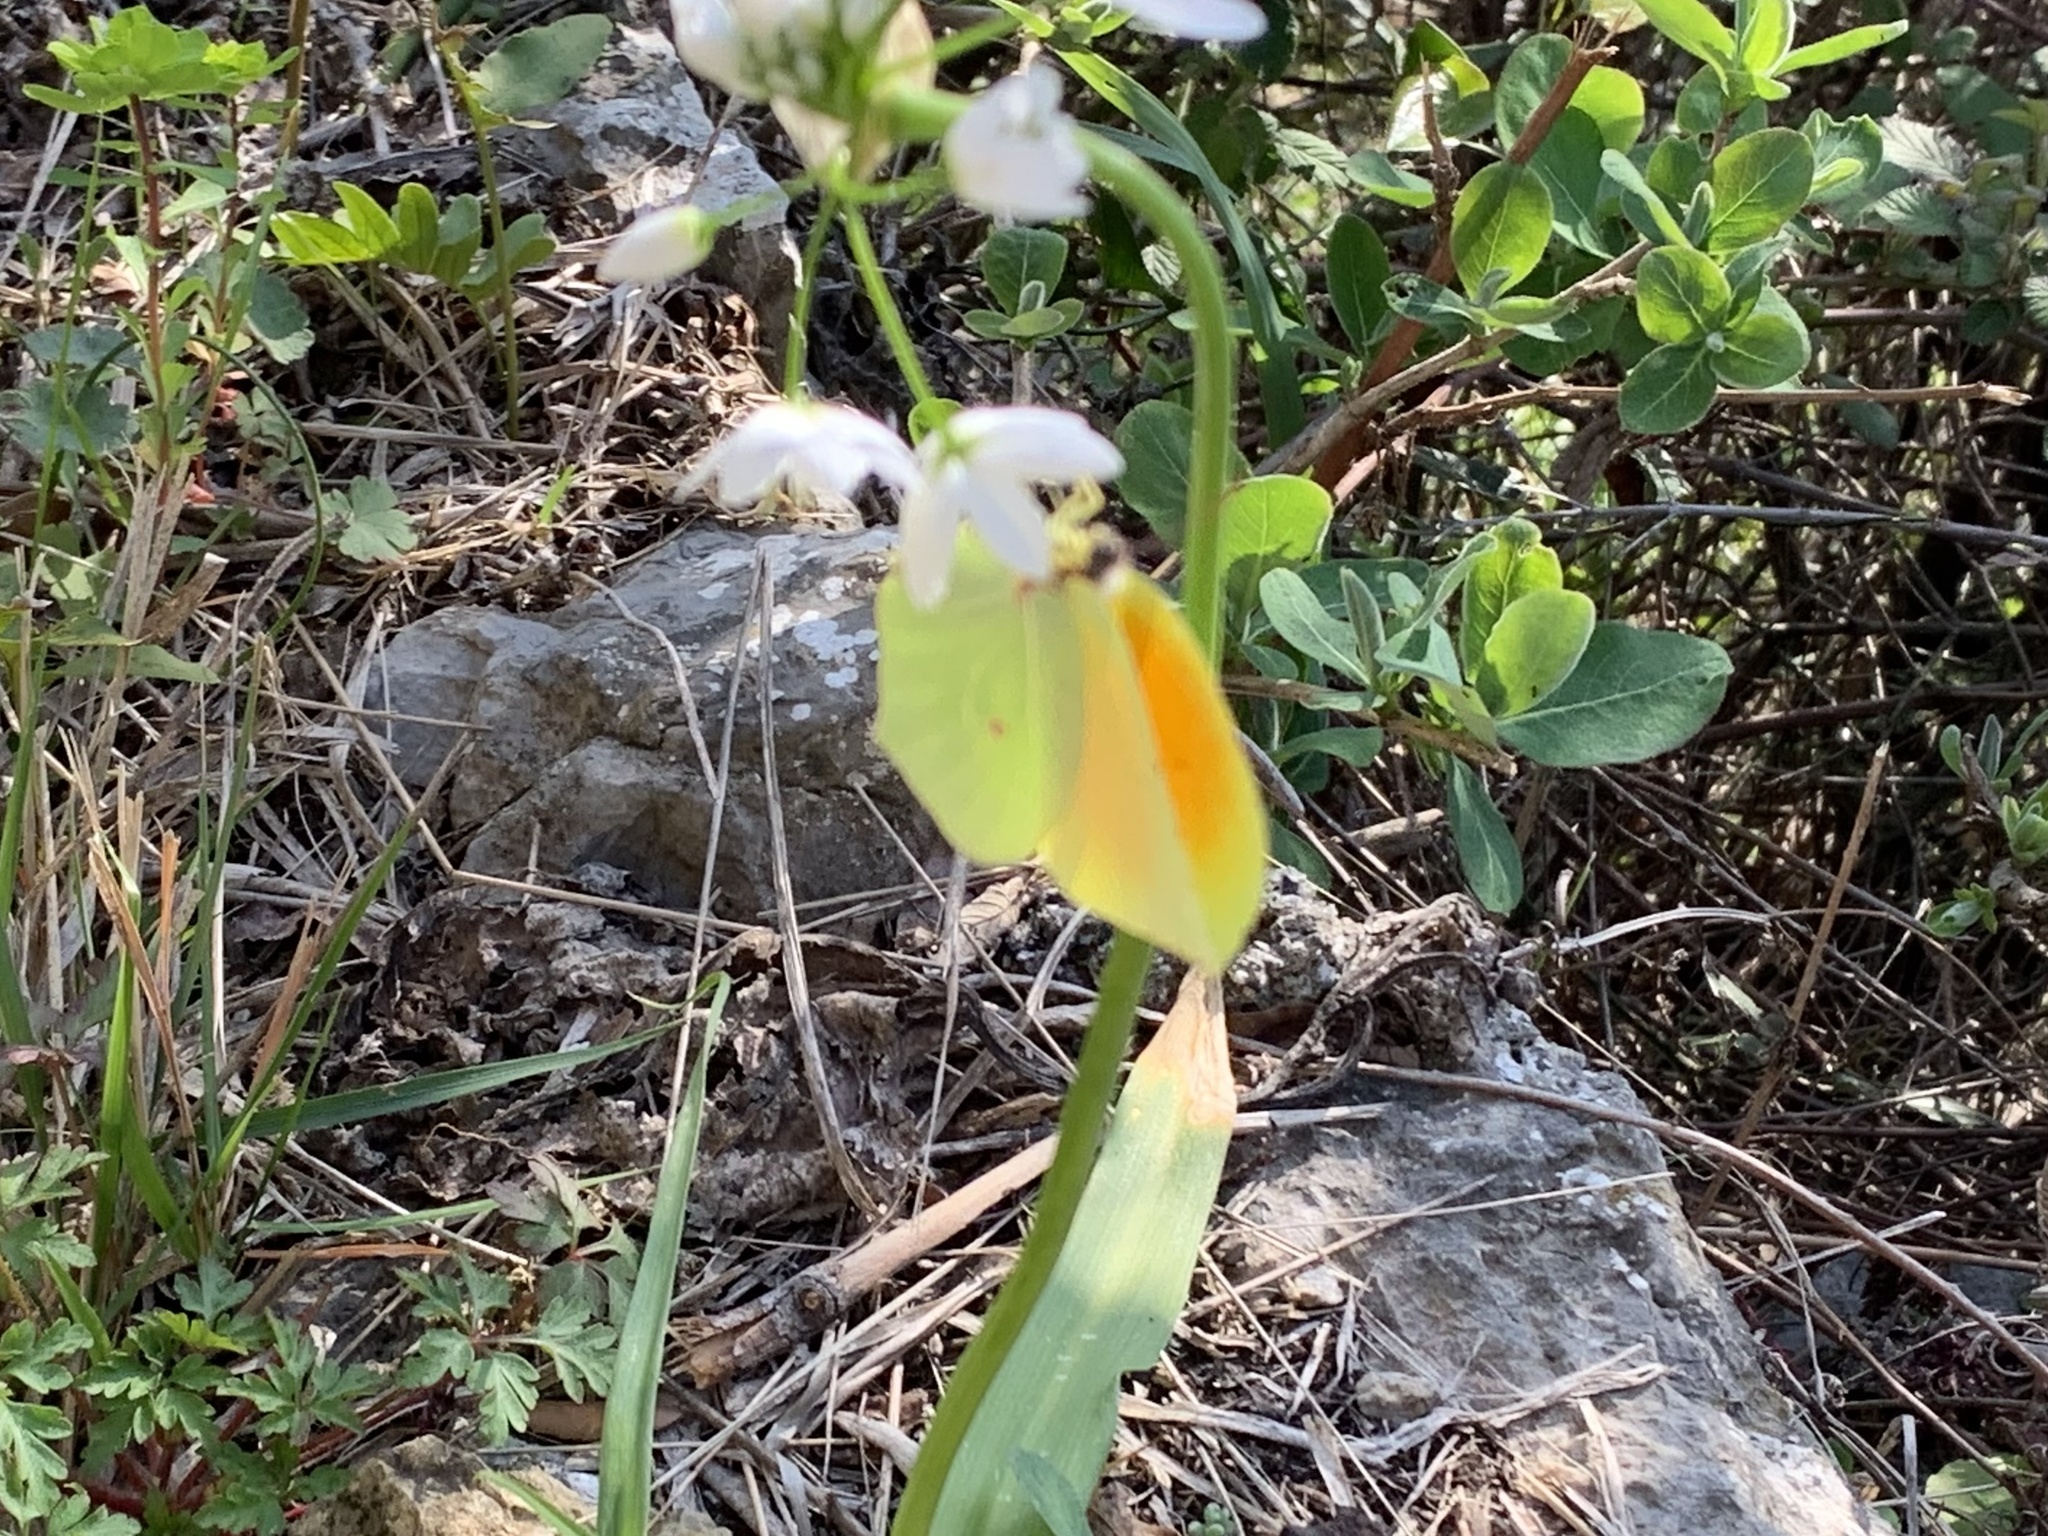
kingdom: Animalia
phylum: Arthropoda
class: Insecta
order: Lepidoptera
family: Pieridae
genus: Gonepteryx
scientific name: Gonepteryx cleopatra
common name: Cleopatra
